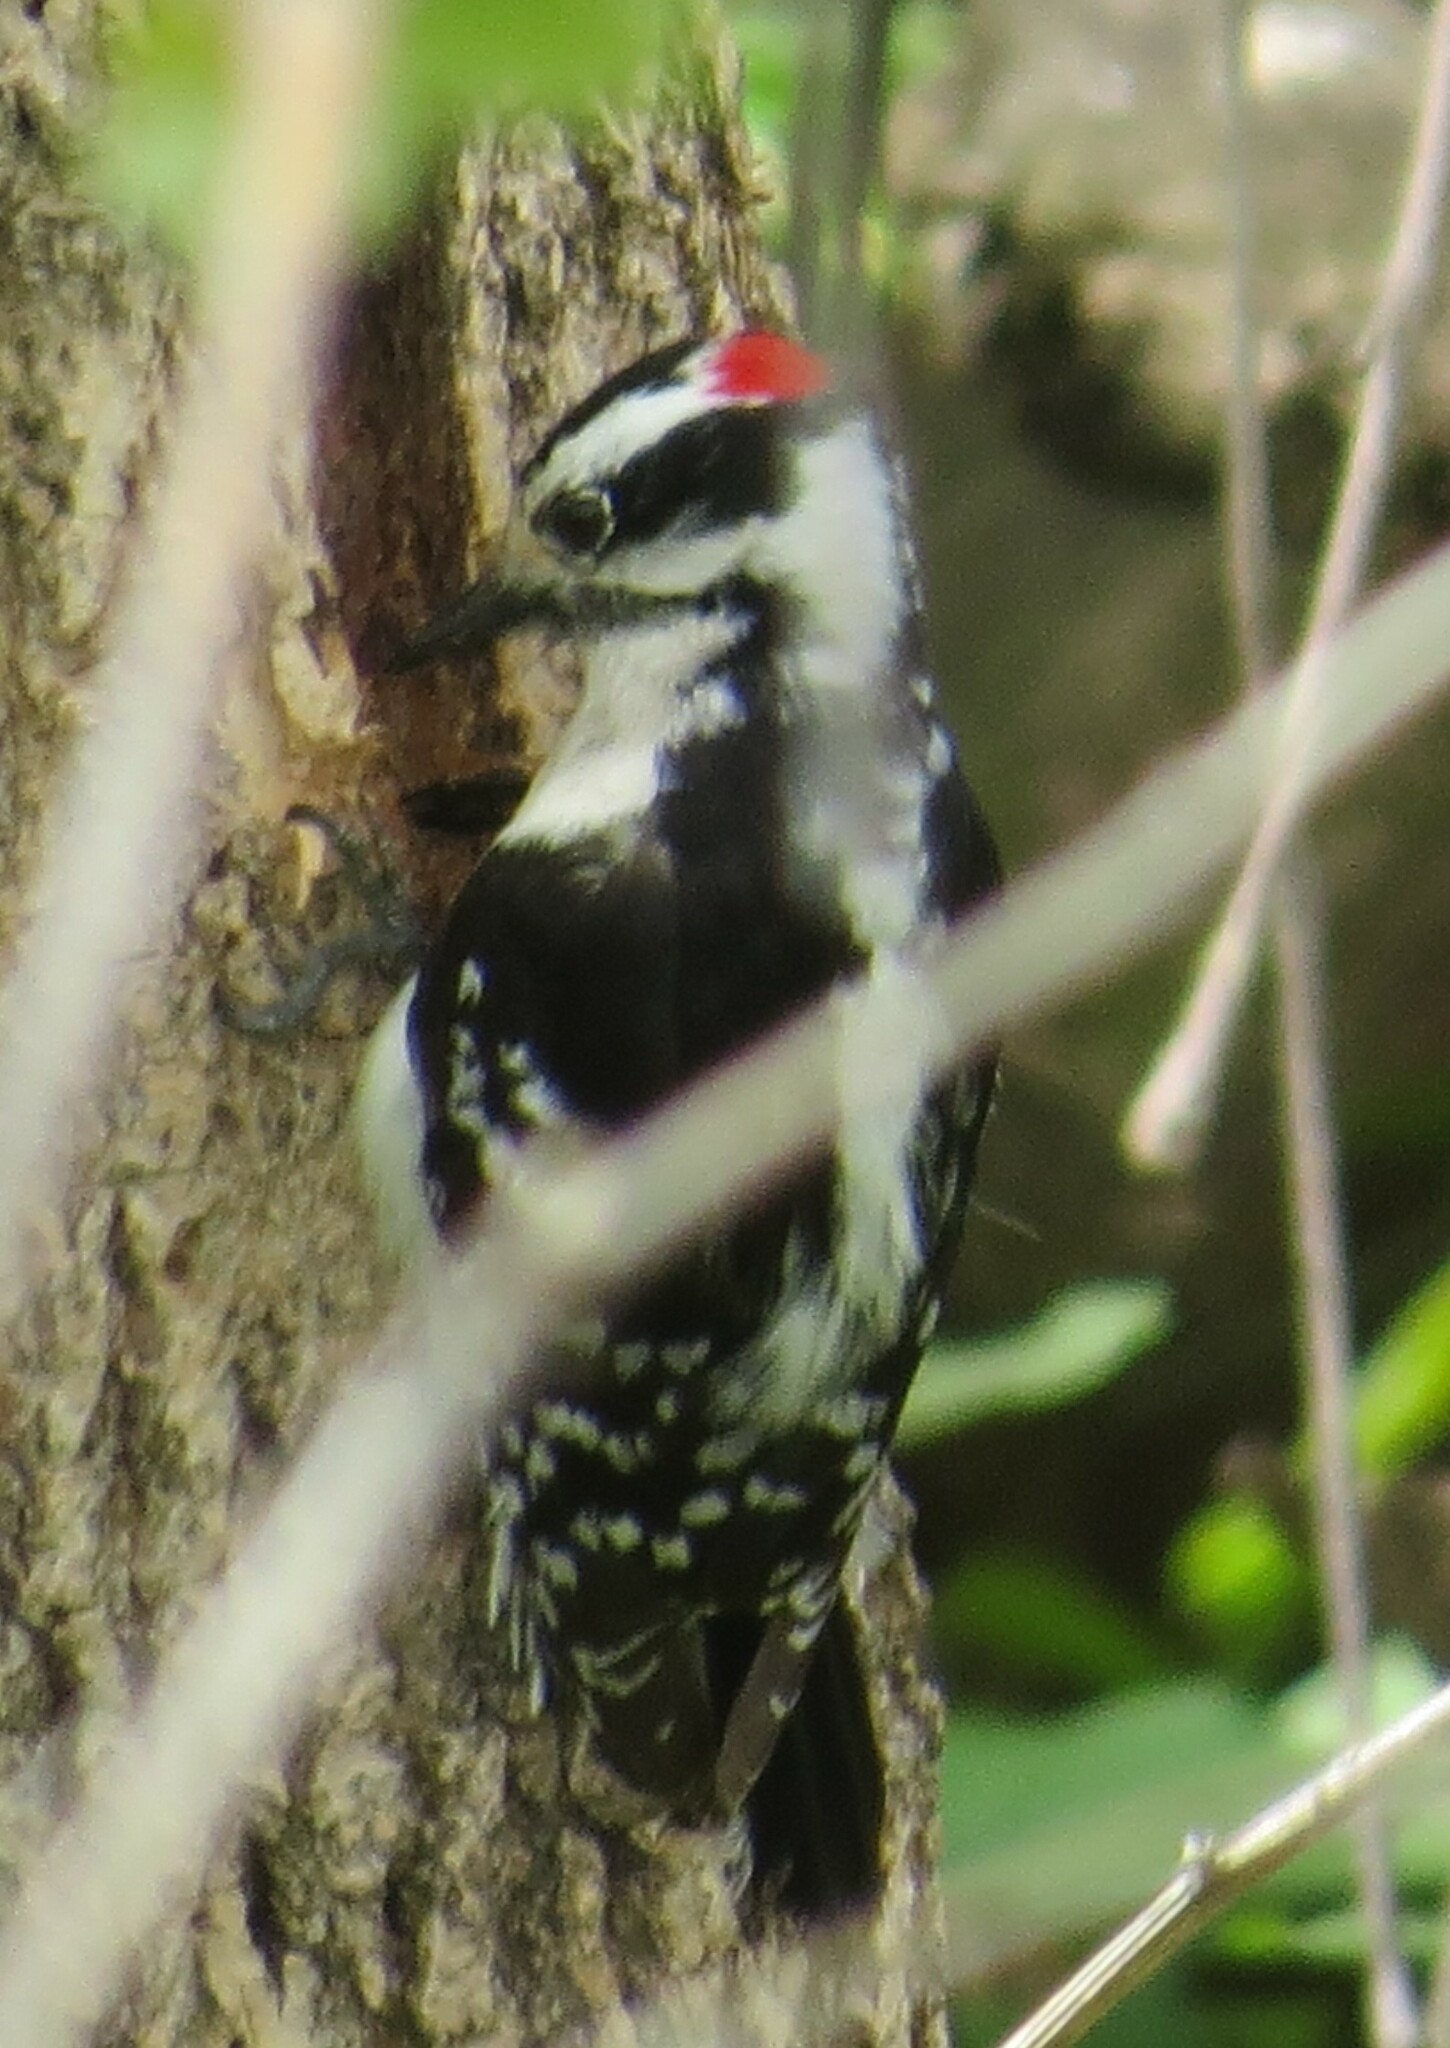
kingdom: Animalia
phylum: Chordata
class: Aves
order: Piciformes
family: Picidae
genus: Dryobates
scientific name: Dryobates pubescens
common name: Downy woodpecker
